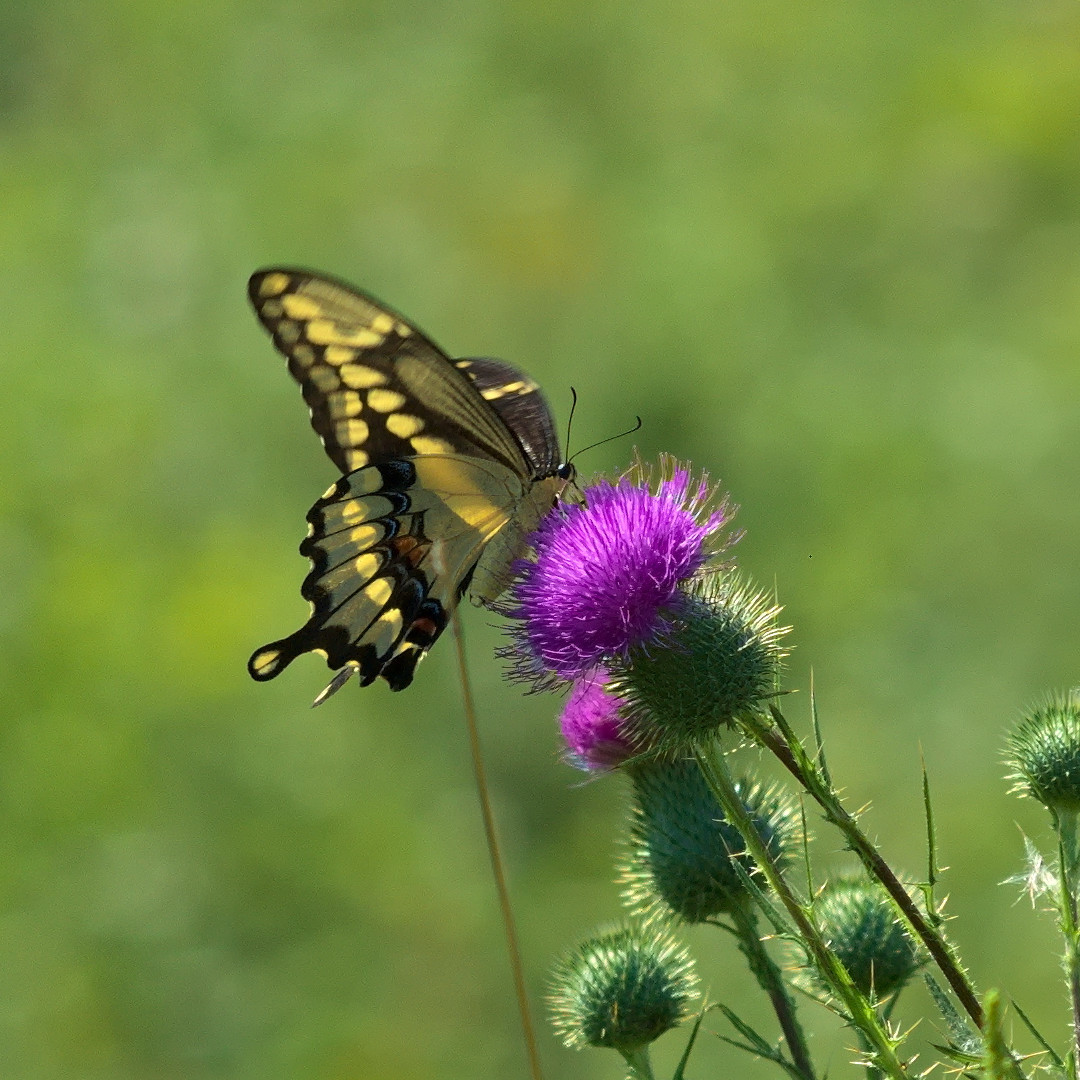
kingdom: Animalia
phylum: Arthropoda
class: Insecta
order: Lepidoptera
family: Papilionidae
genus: Papilio
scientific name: Papilio cresphontes
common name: Giant swallowtail
